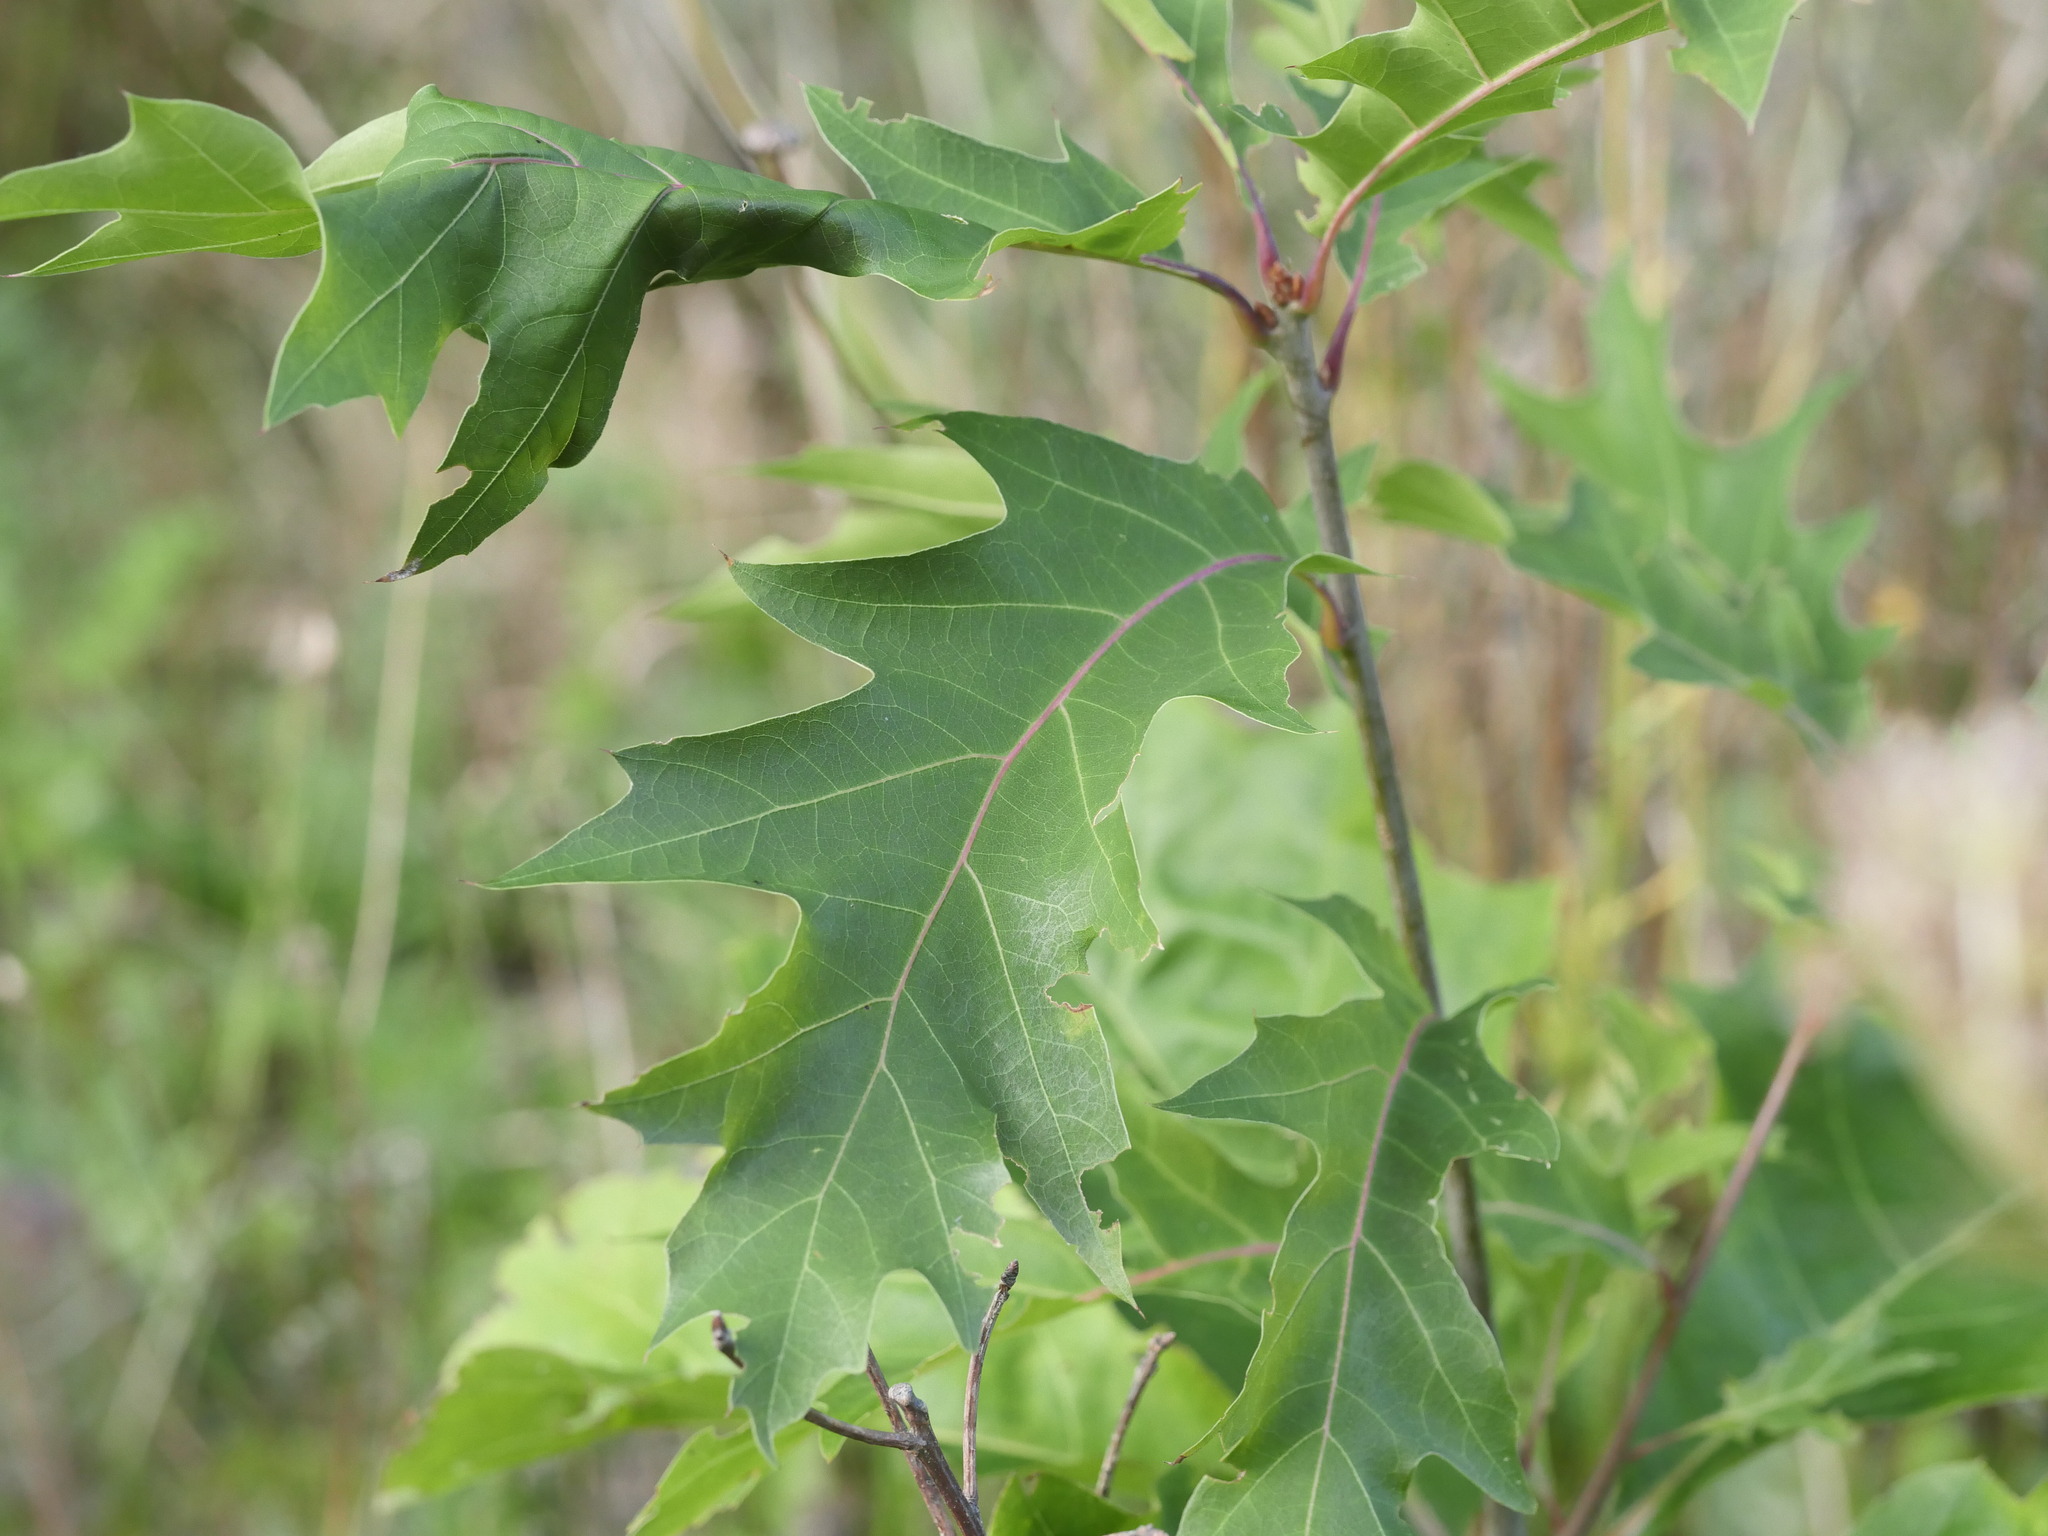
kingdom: Plantae
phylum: Tracheophyta
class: Magnoliopsida
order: Fagales
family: Fagaceae
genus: Quercus
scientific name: Quercus rubra
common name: Red oak
